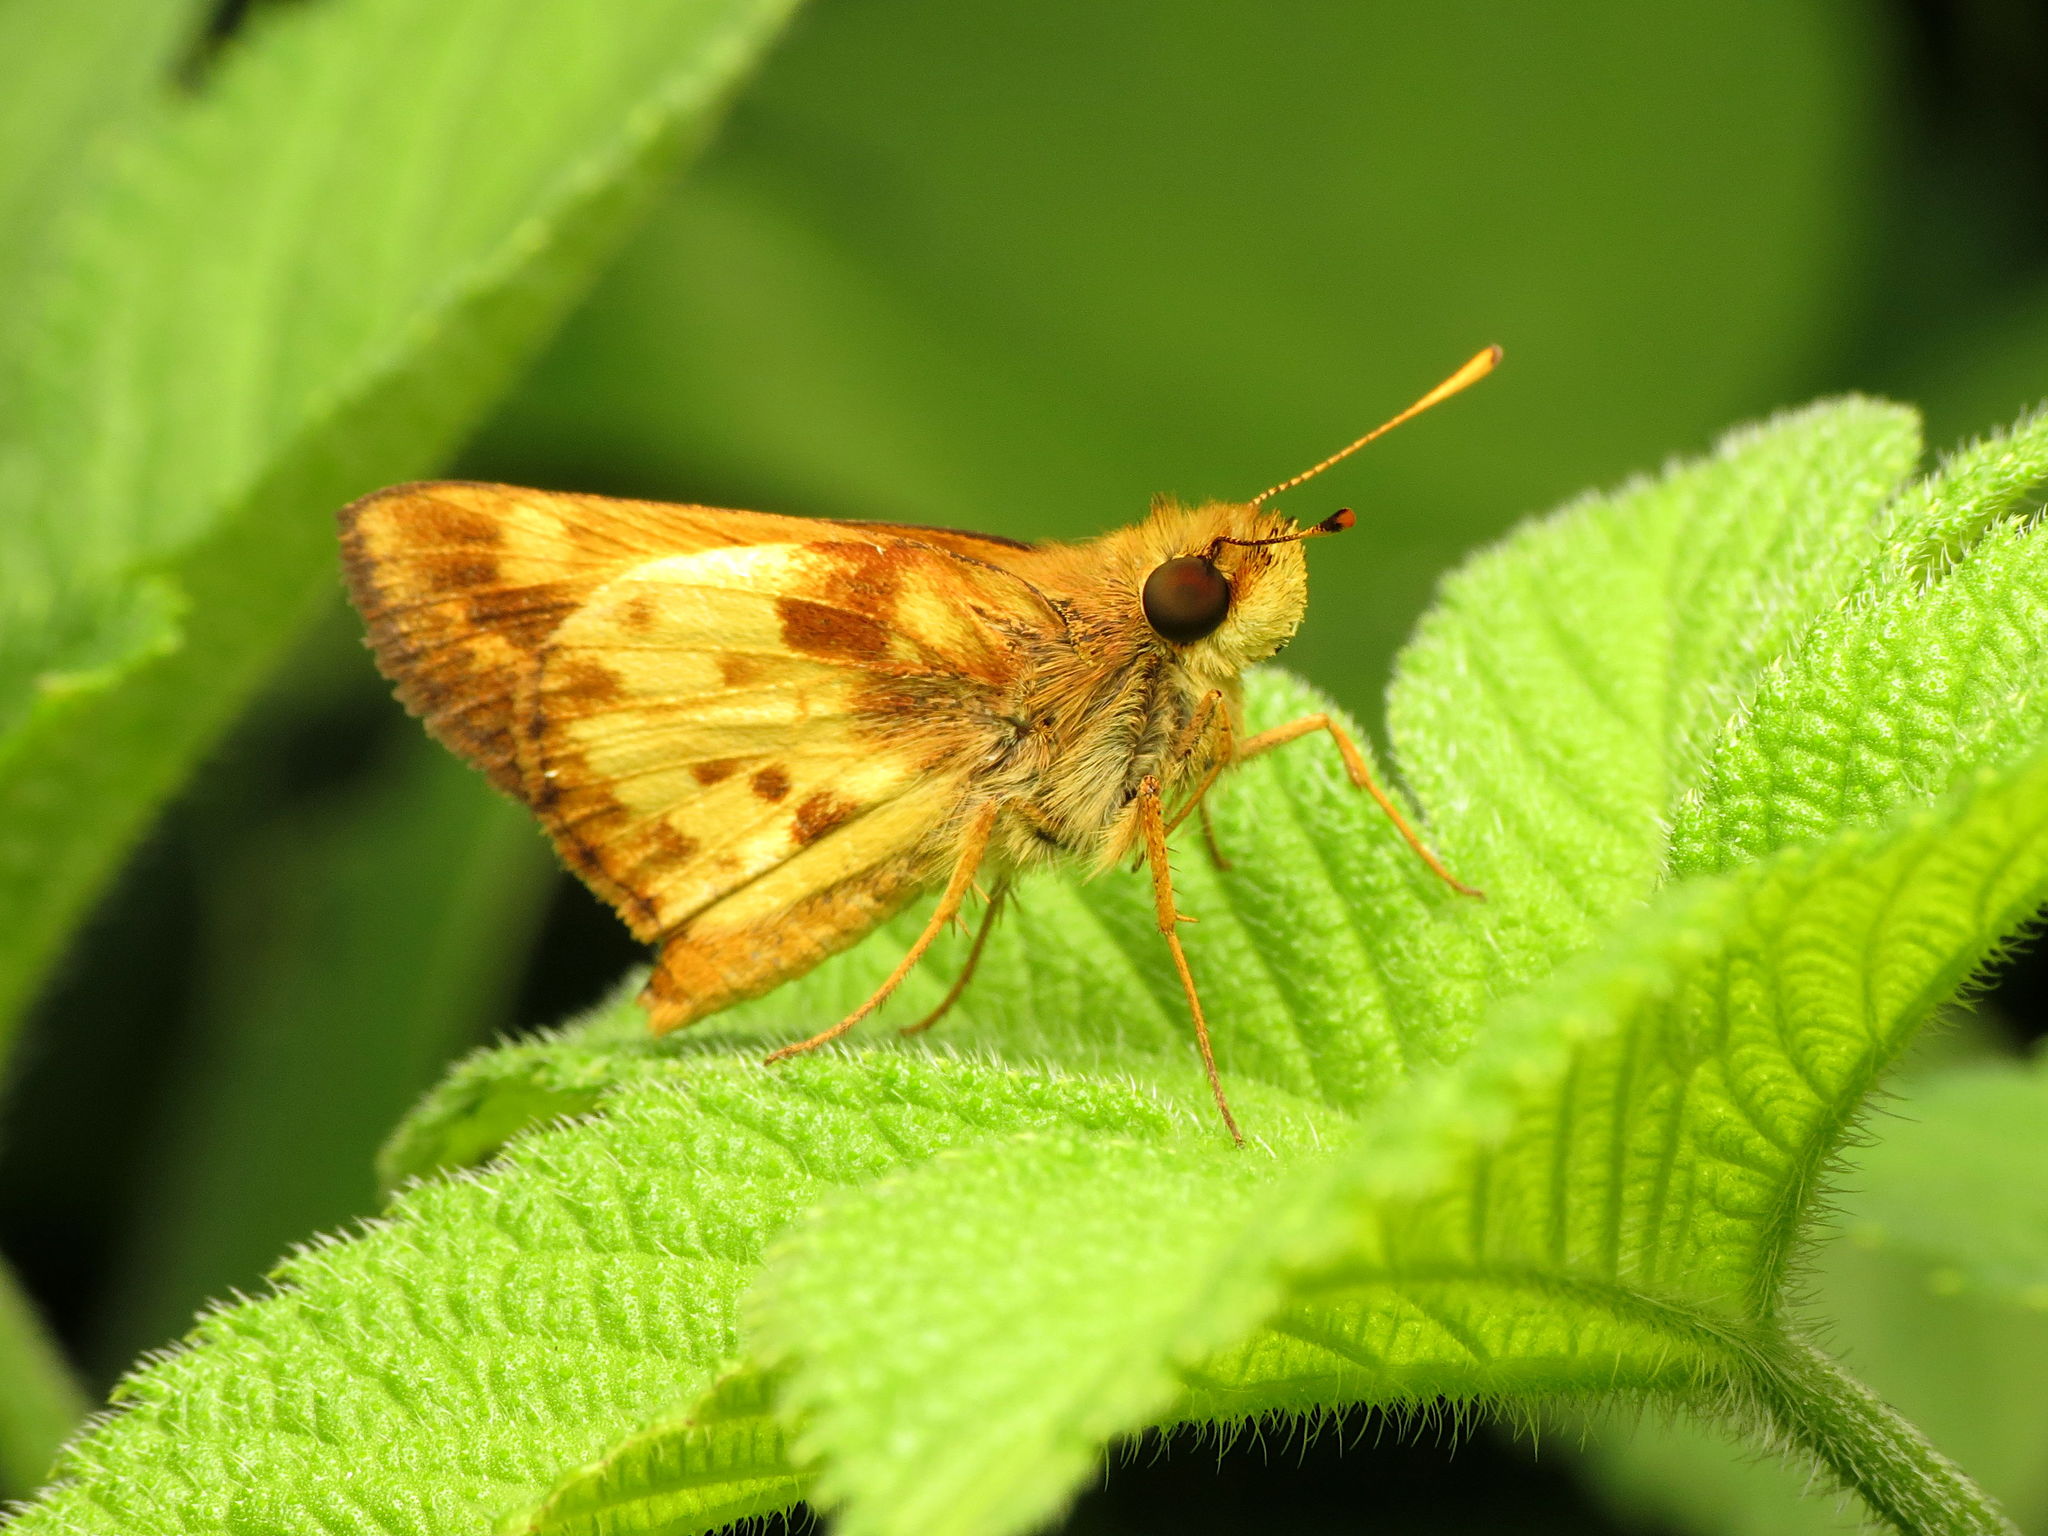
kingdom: Animalia
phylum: Arthropoda
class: Insecta
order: Lepidoptera
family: Hesperiidae
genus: Lon
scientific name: Lon zabulon
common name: Zabulon skipper
